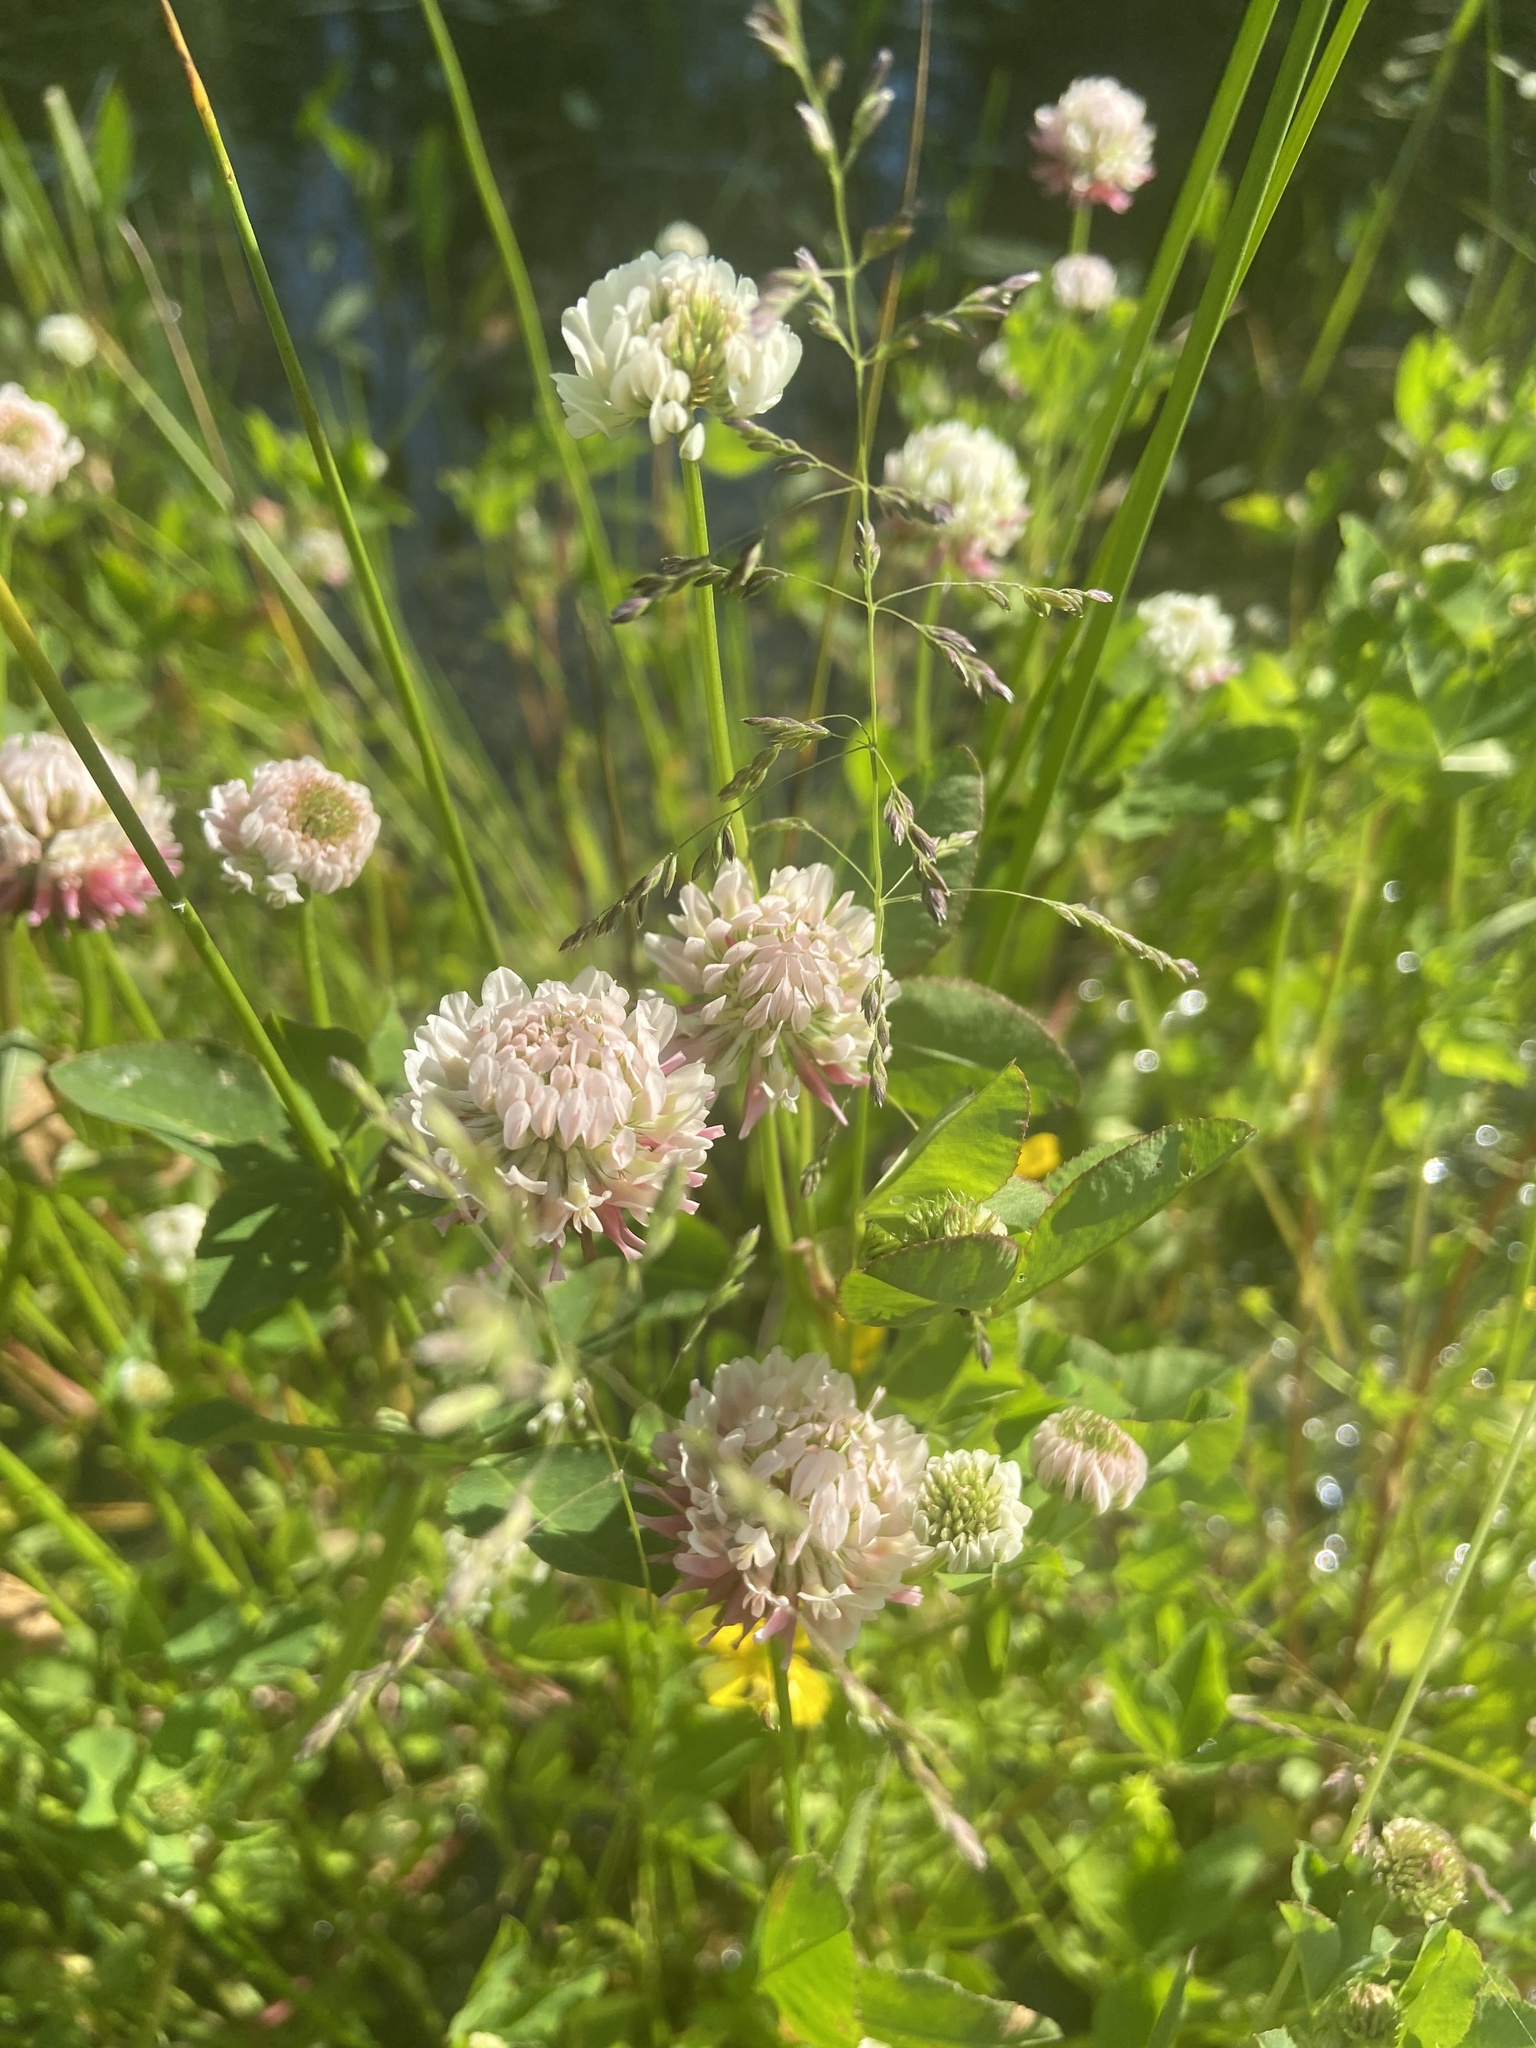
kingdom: Plantae
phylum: Tracheophyta
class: Magnoliopsida
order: Fabales
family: Fabaceae
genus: Trifolium
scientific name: Trifolium hybridum
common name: Alsike clover
